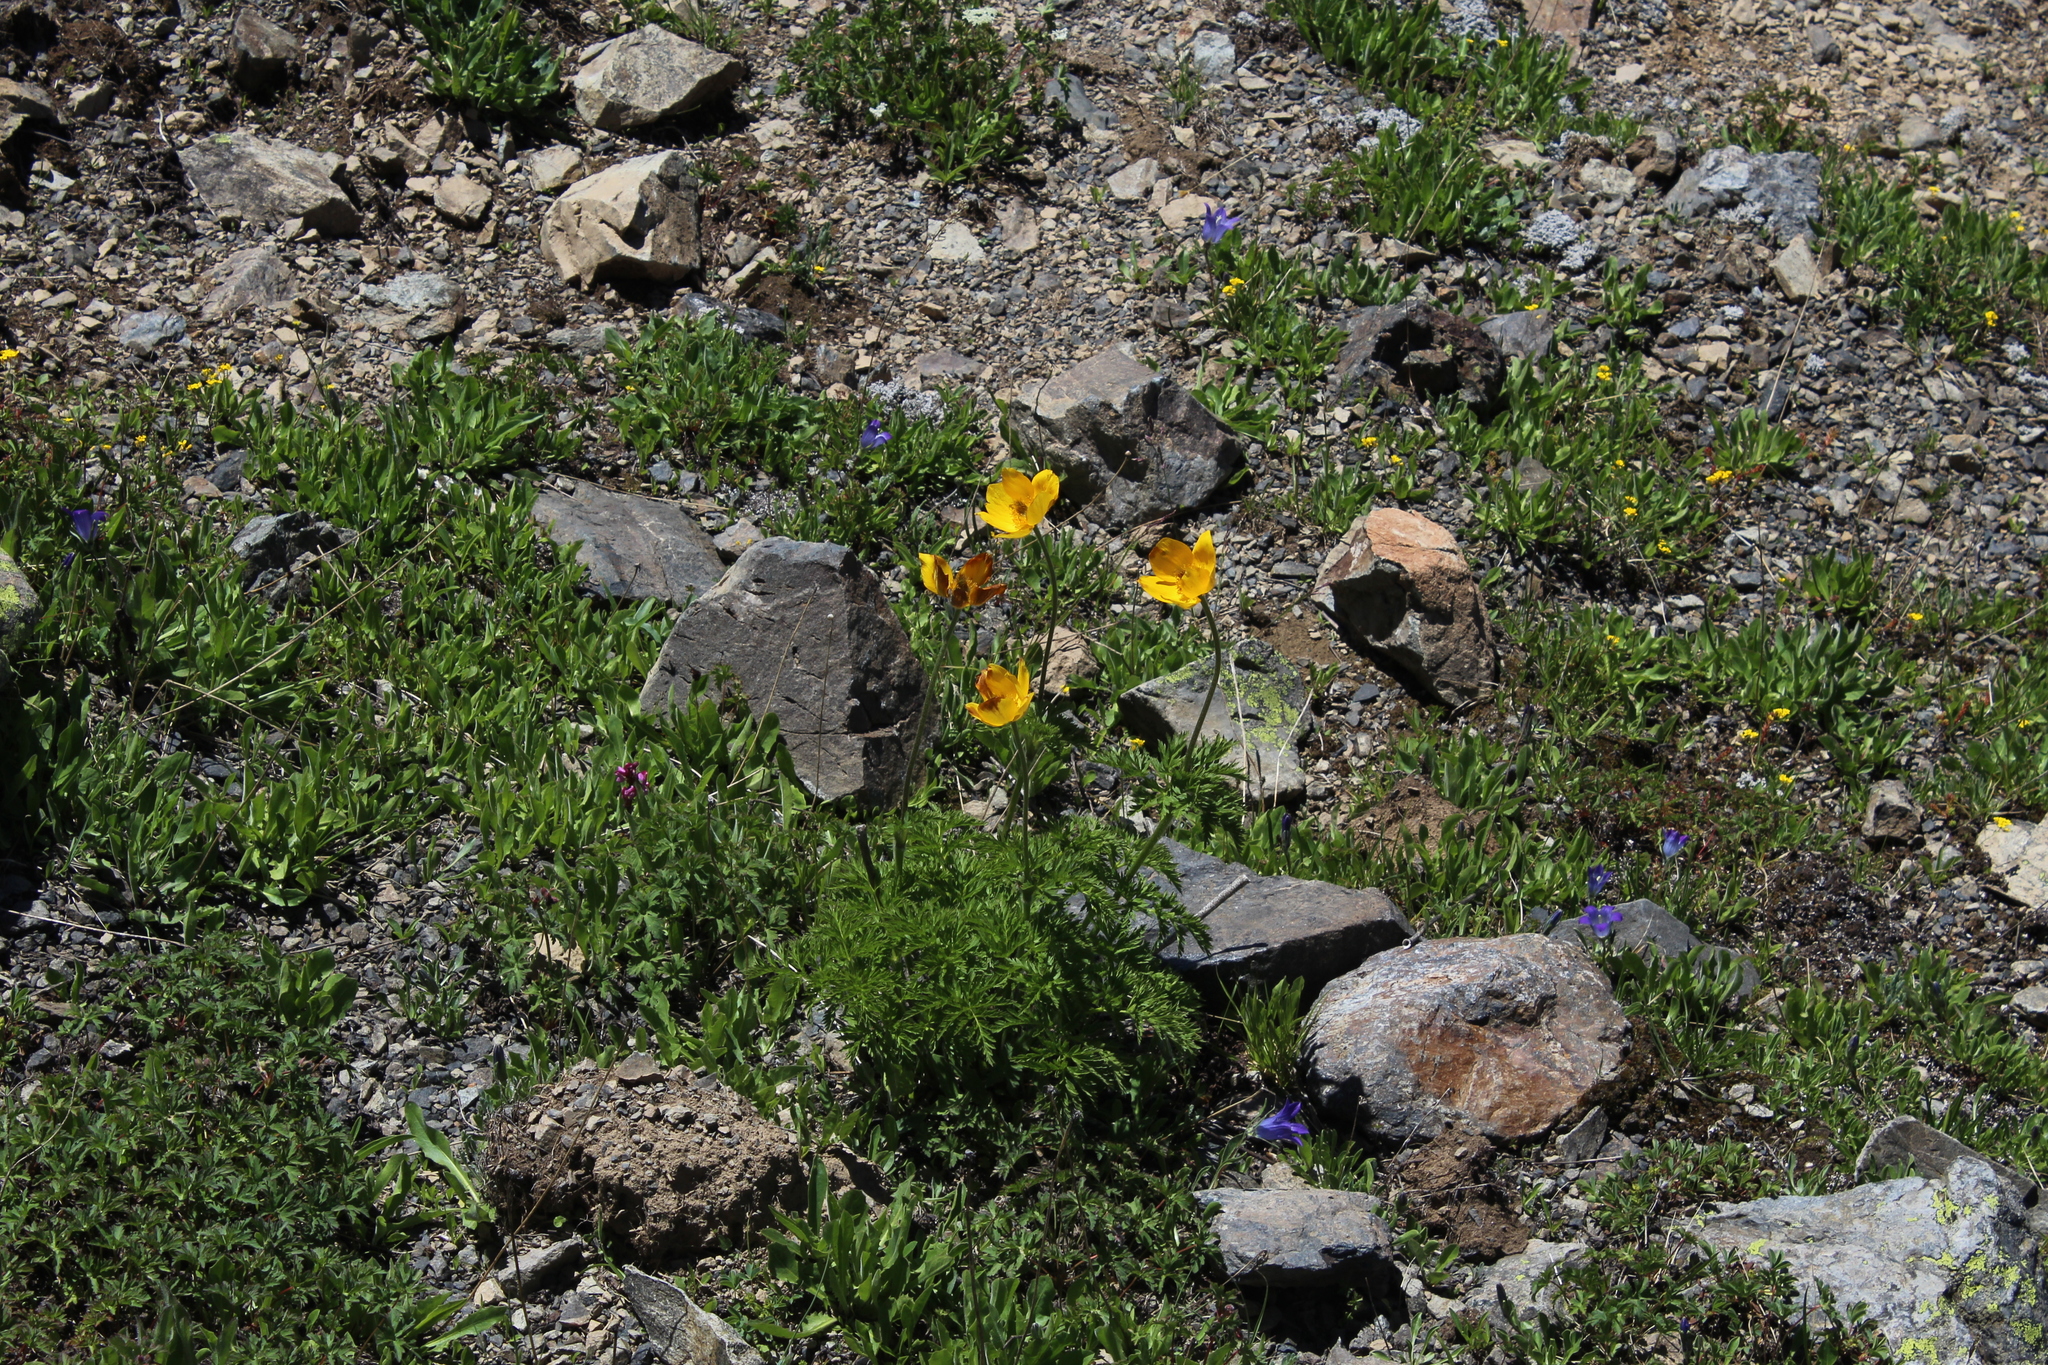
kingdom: Plantae
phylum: Tracheophyta
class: Magnoliopsida
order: Ranunculales
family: Ranunculaceae
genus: Pulsatilla
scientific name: Pulsatilla aurea
